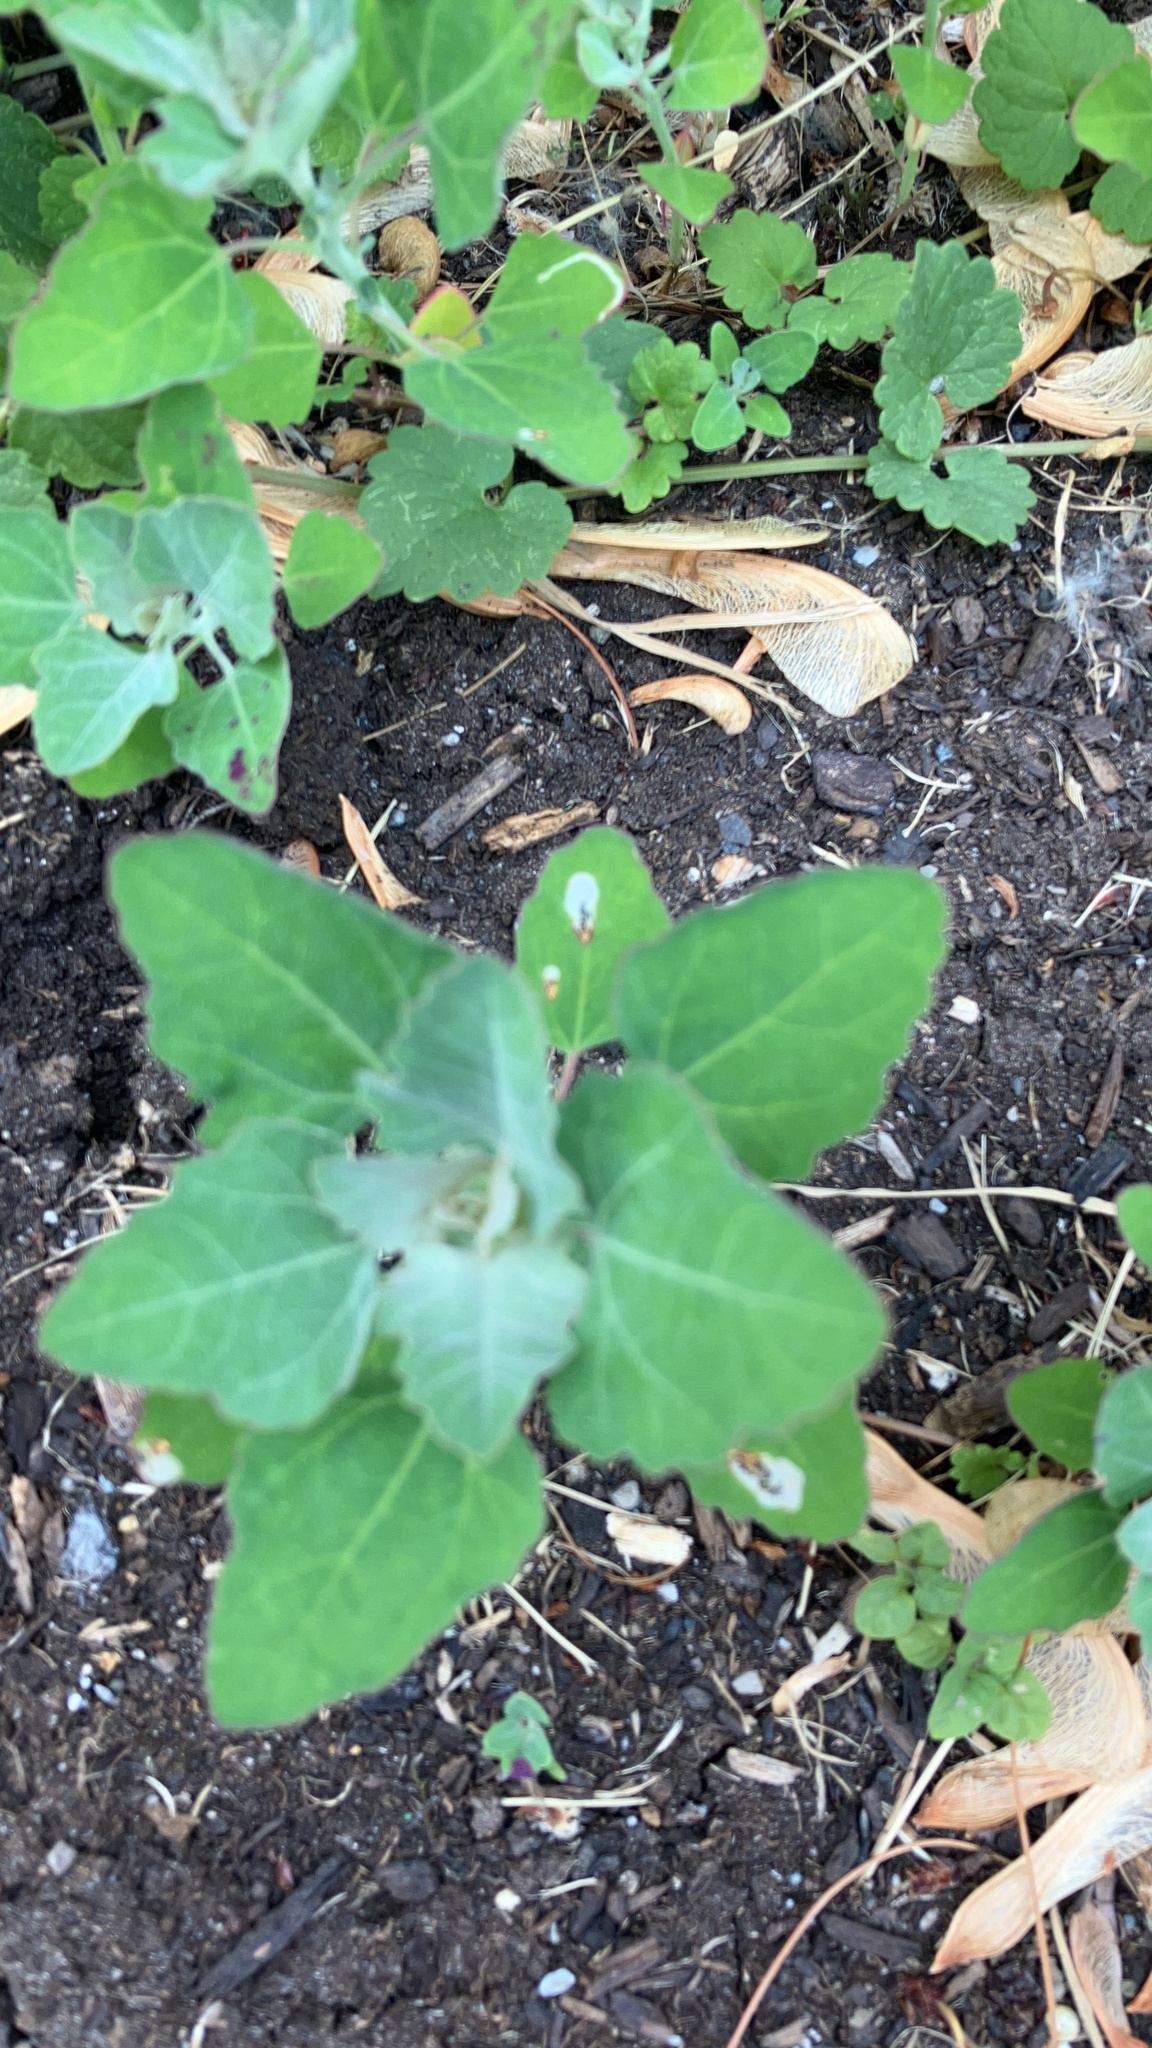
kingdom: Plantae
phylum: Tracheophyta
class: Magnoliopsida
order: Caryophyllales
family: Amaranthaceae
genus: Chenopodium
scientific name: Chenopodium album
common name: Fat-hen
